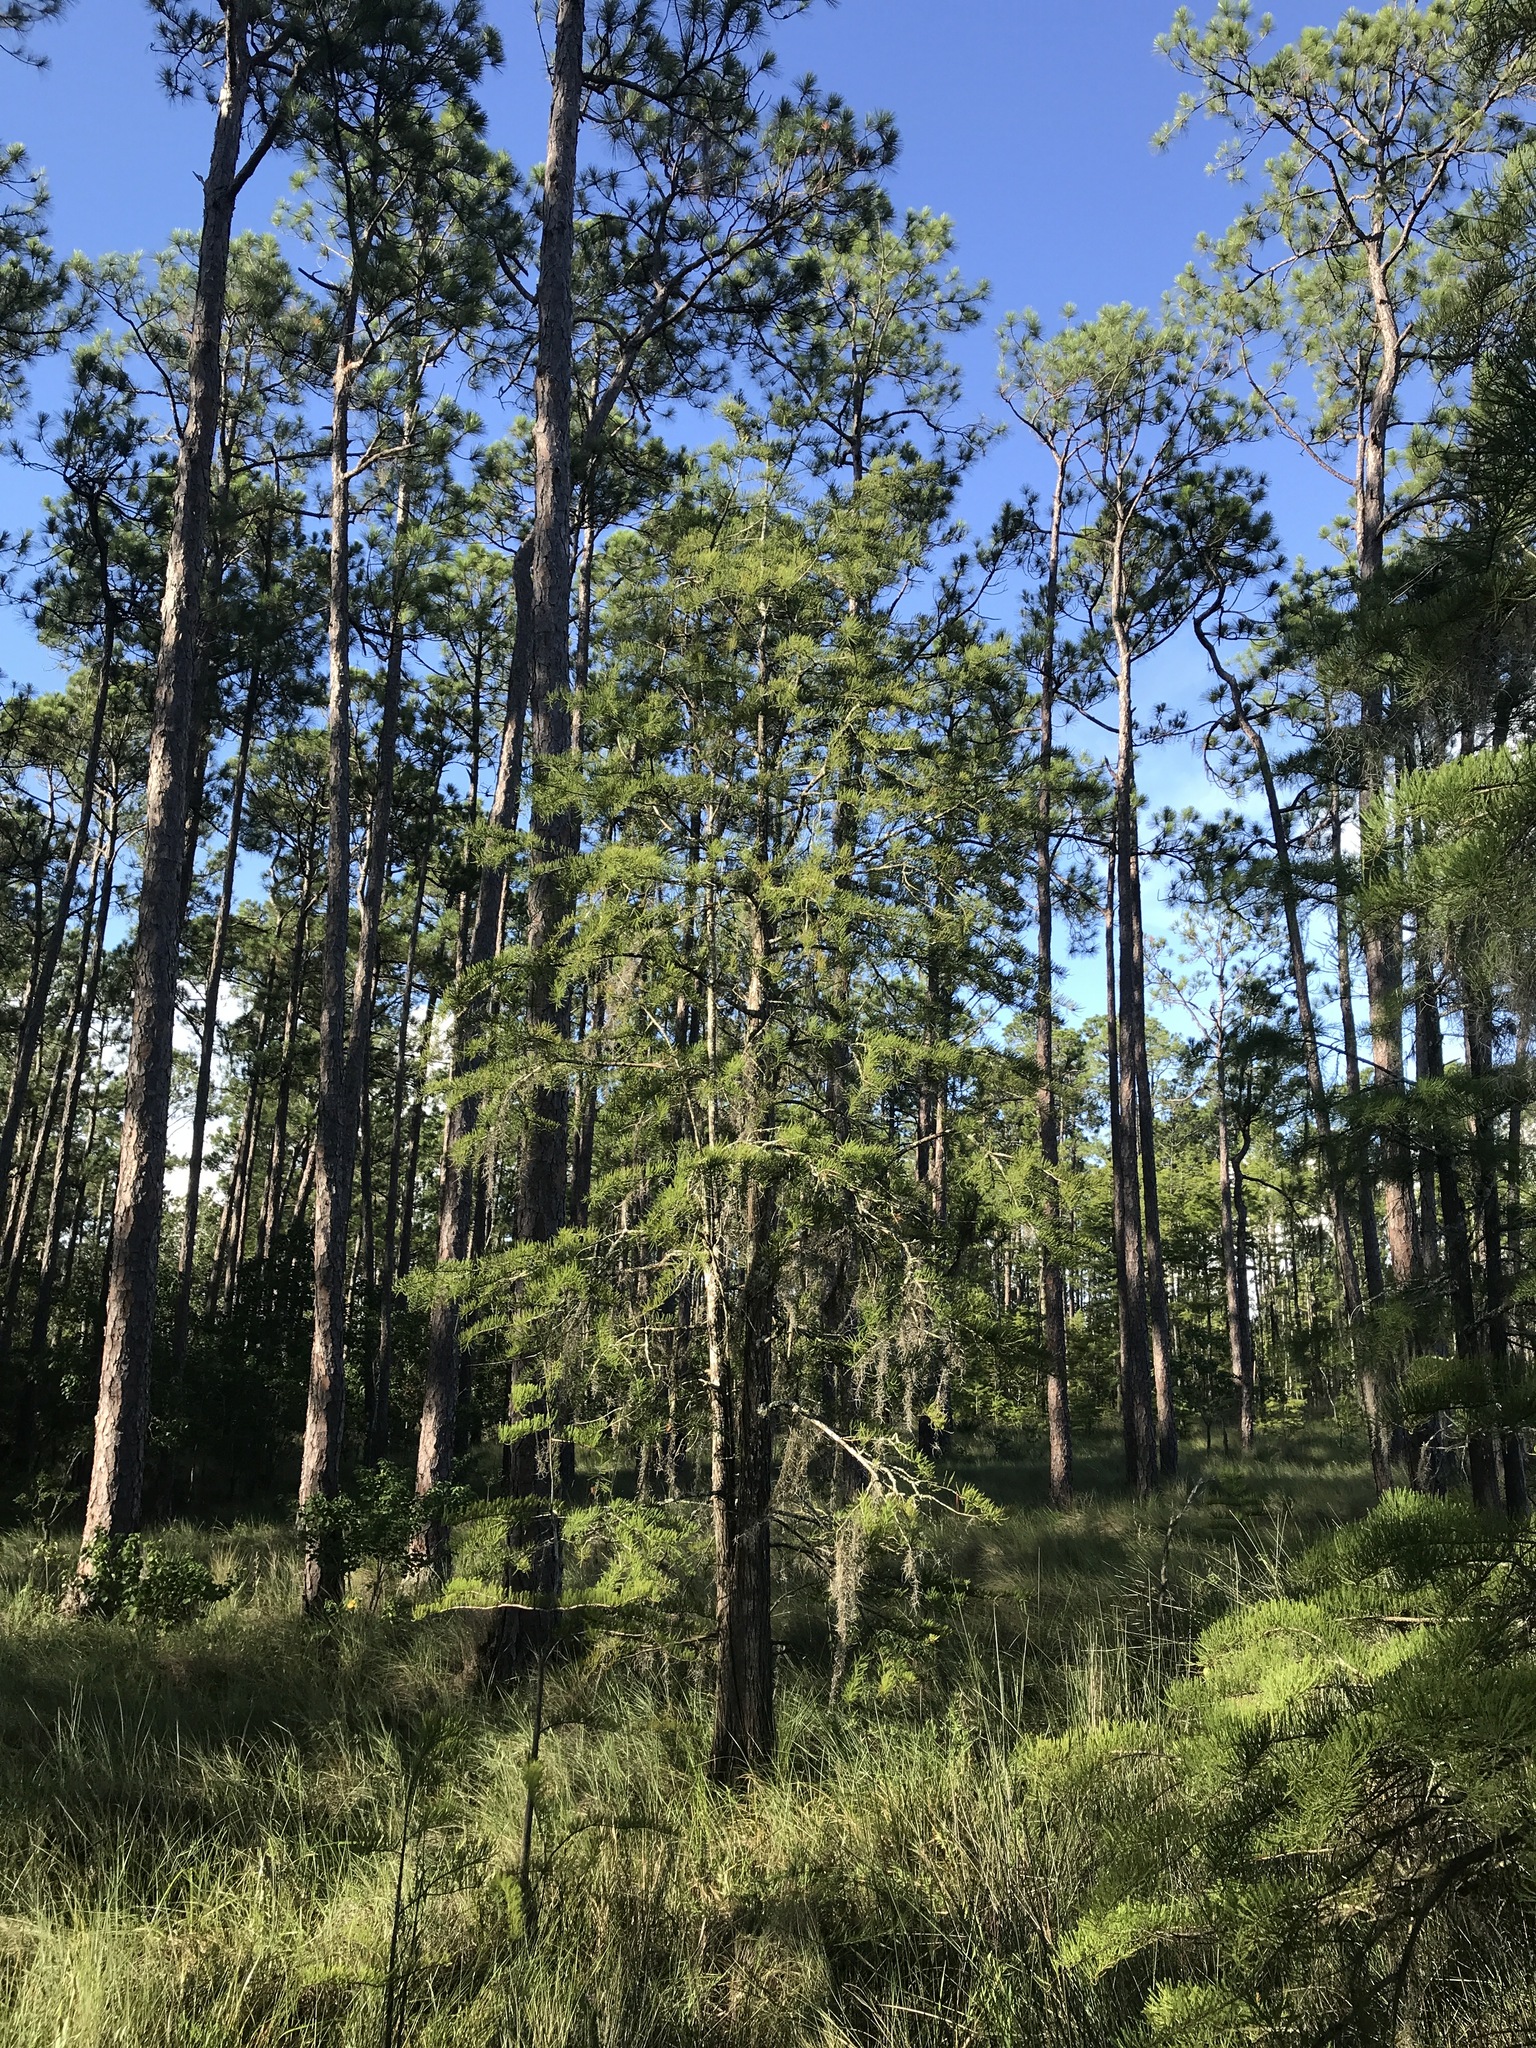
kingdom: Plantae
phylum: Tracheophyta
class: Pinopsida
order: Pinales
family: Cupressaceae
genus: Taxodium
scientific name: Taxodium distichum
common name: Bald cypress
